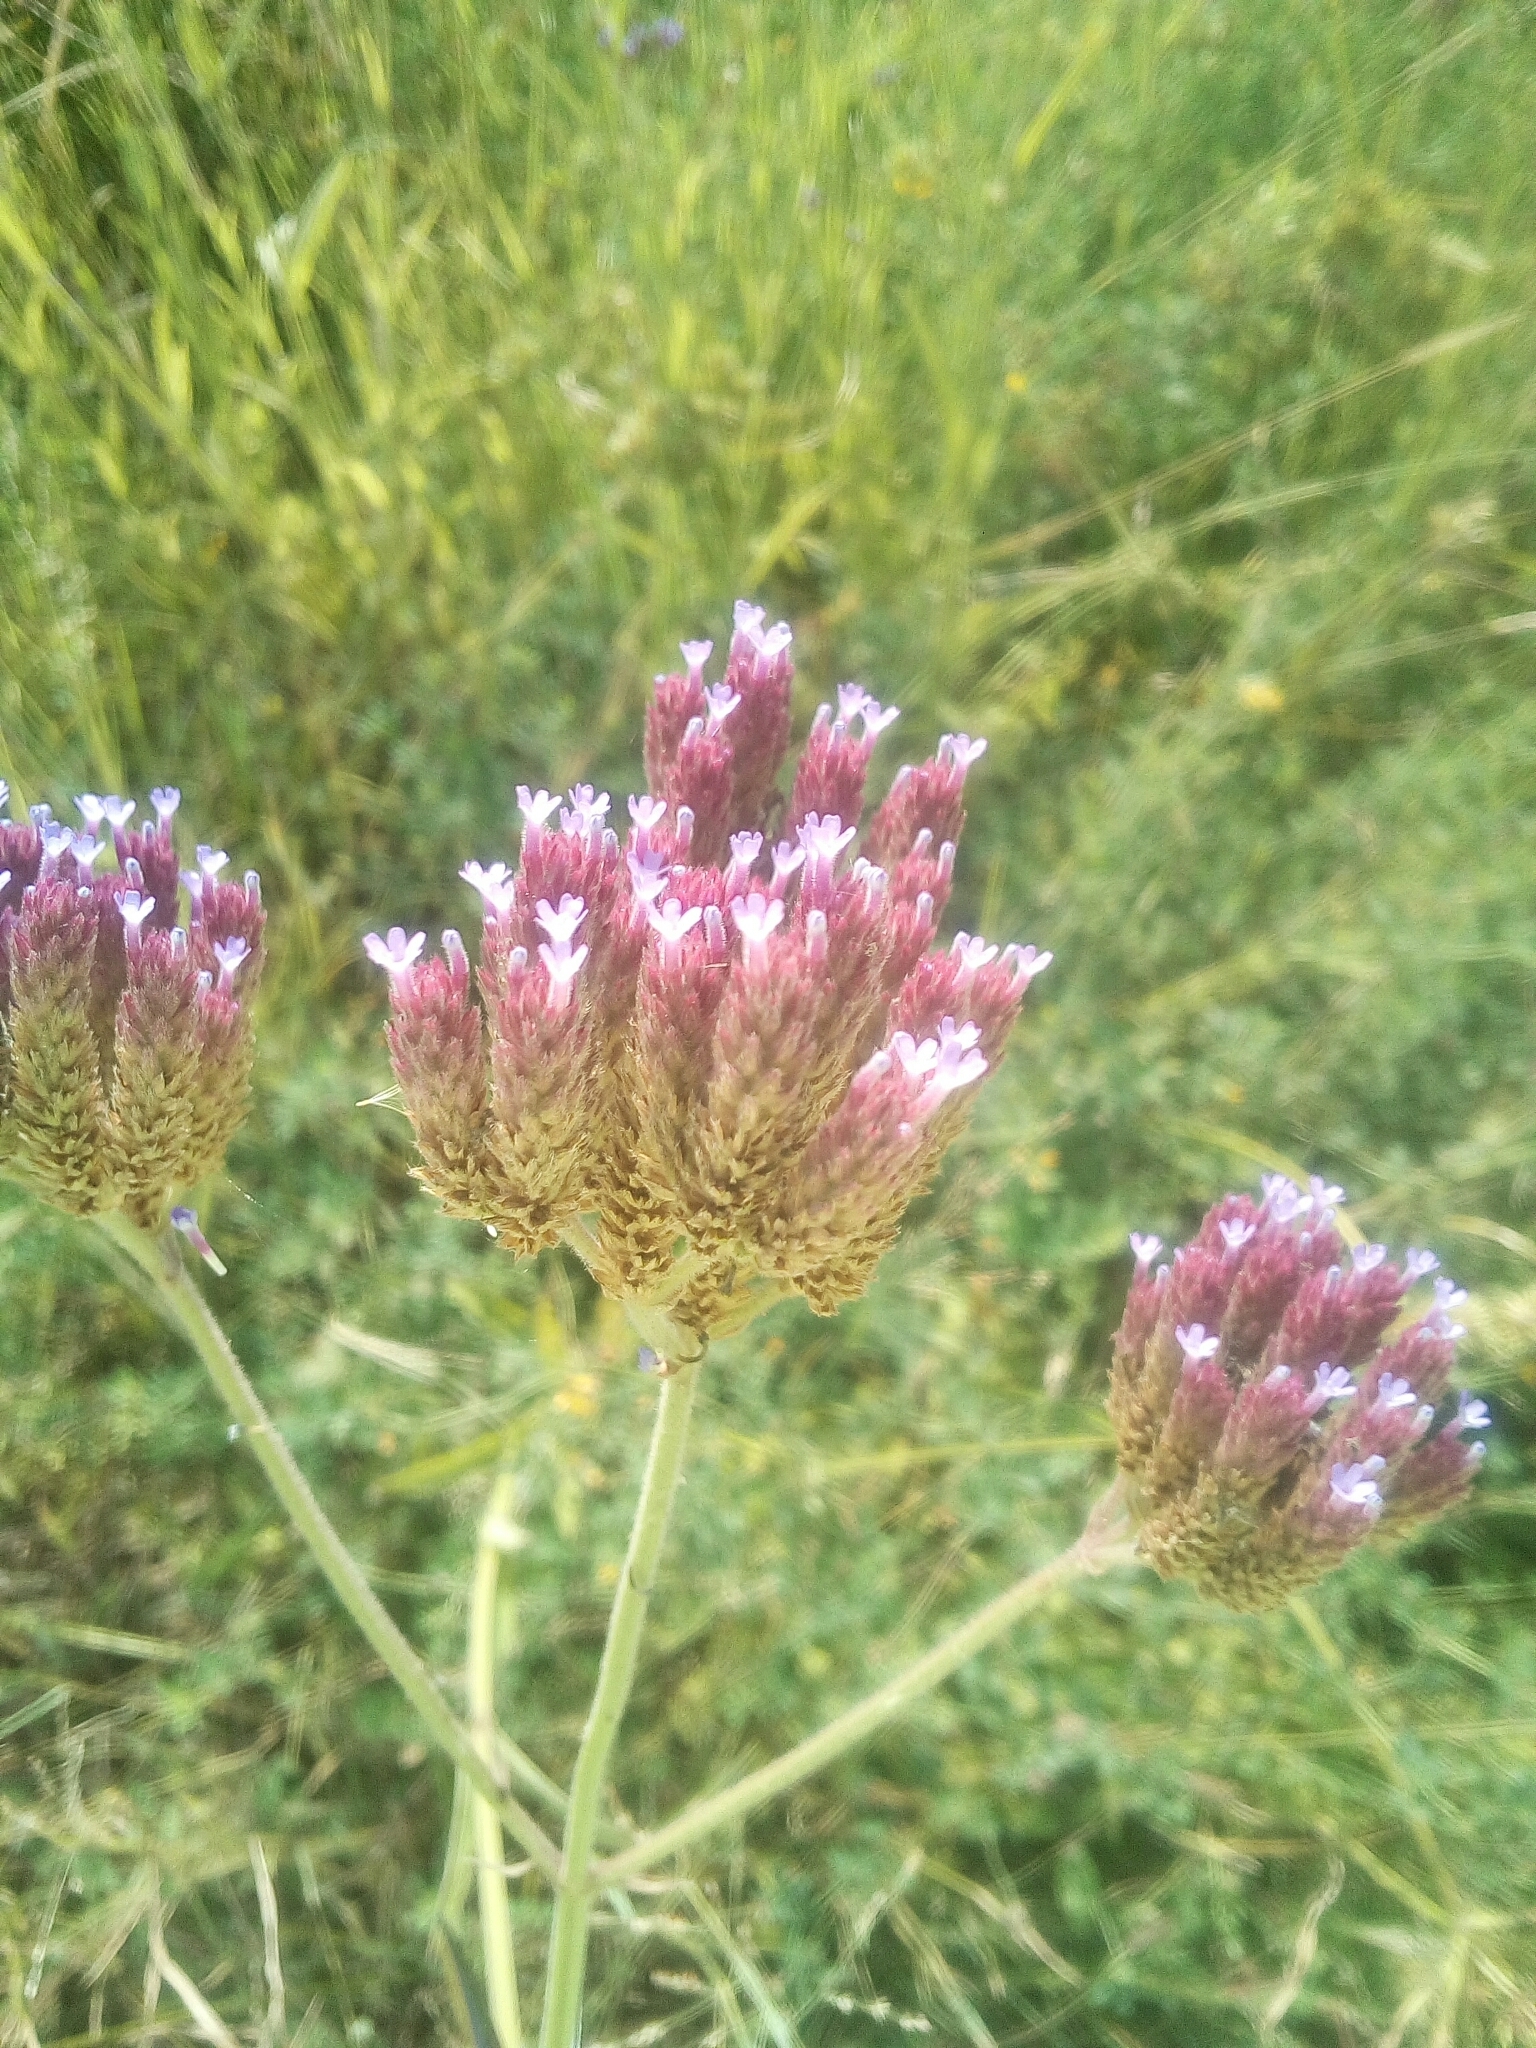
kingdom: Plantae
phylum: Tracheophyta
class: Magnoliopsida
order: Lamiales
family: Verbenaceae
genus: Verbena
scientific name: Verbena incompta
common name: Purpletop vervain
